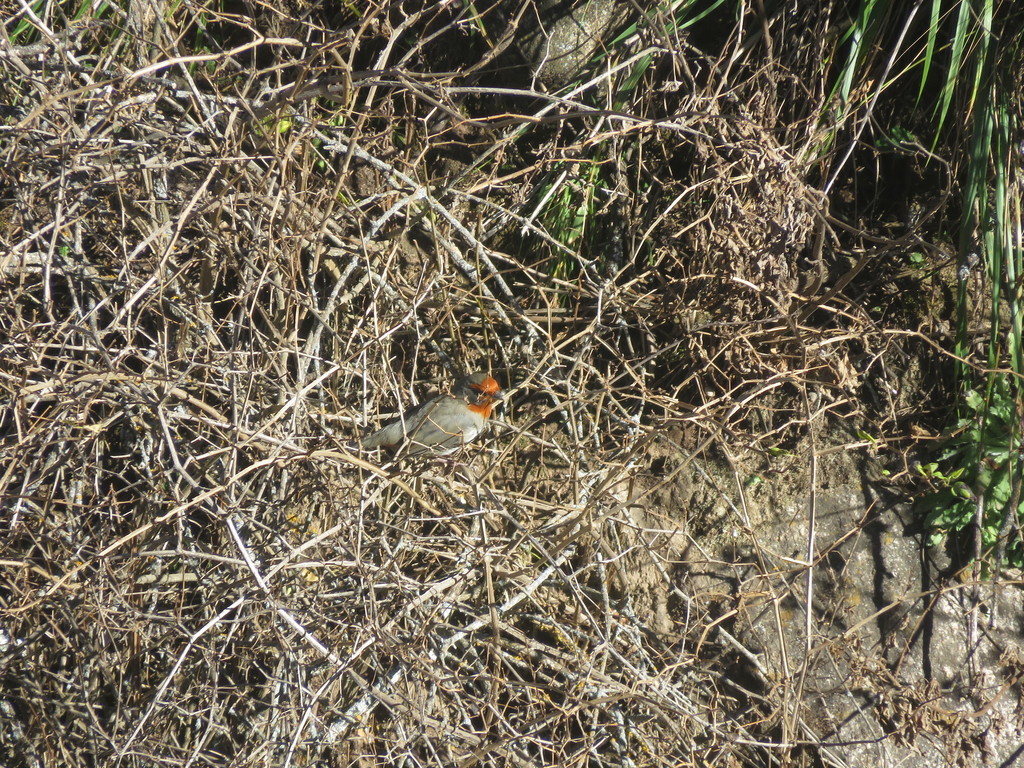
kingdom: Animalia
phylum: Chordata
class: Aves
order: Passeriformes
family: Thraupidae
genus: Poospiza
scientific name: Poospiza baeri
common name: Tucuman mountain-finch
